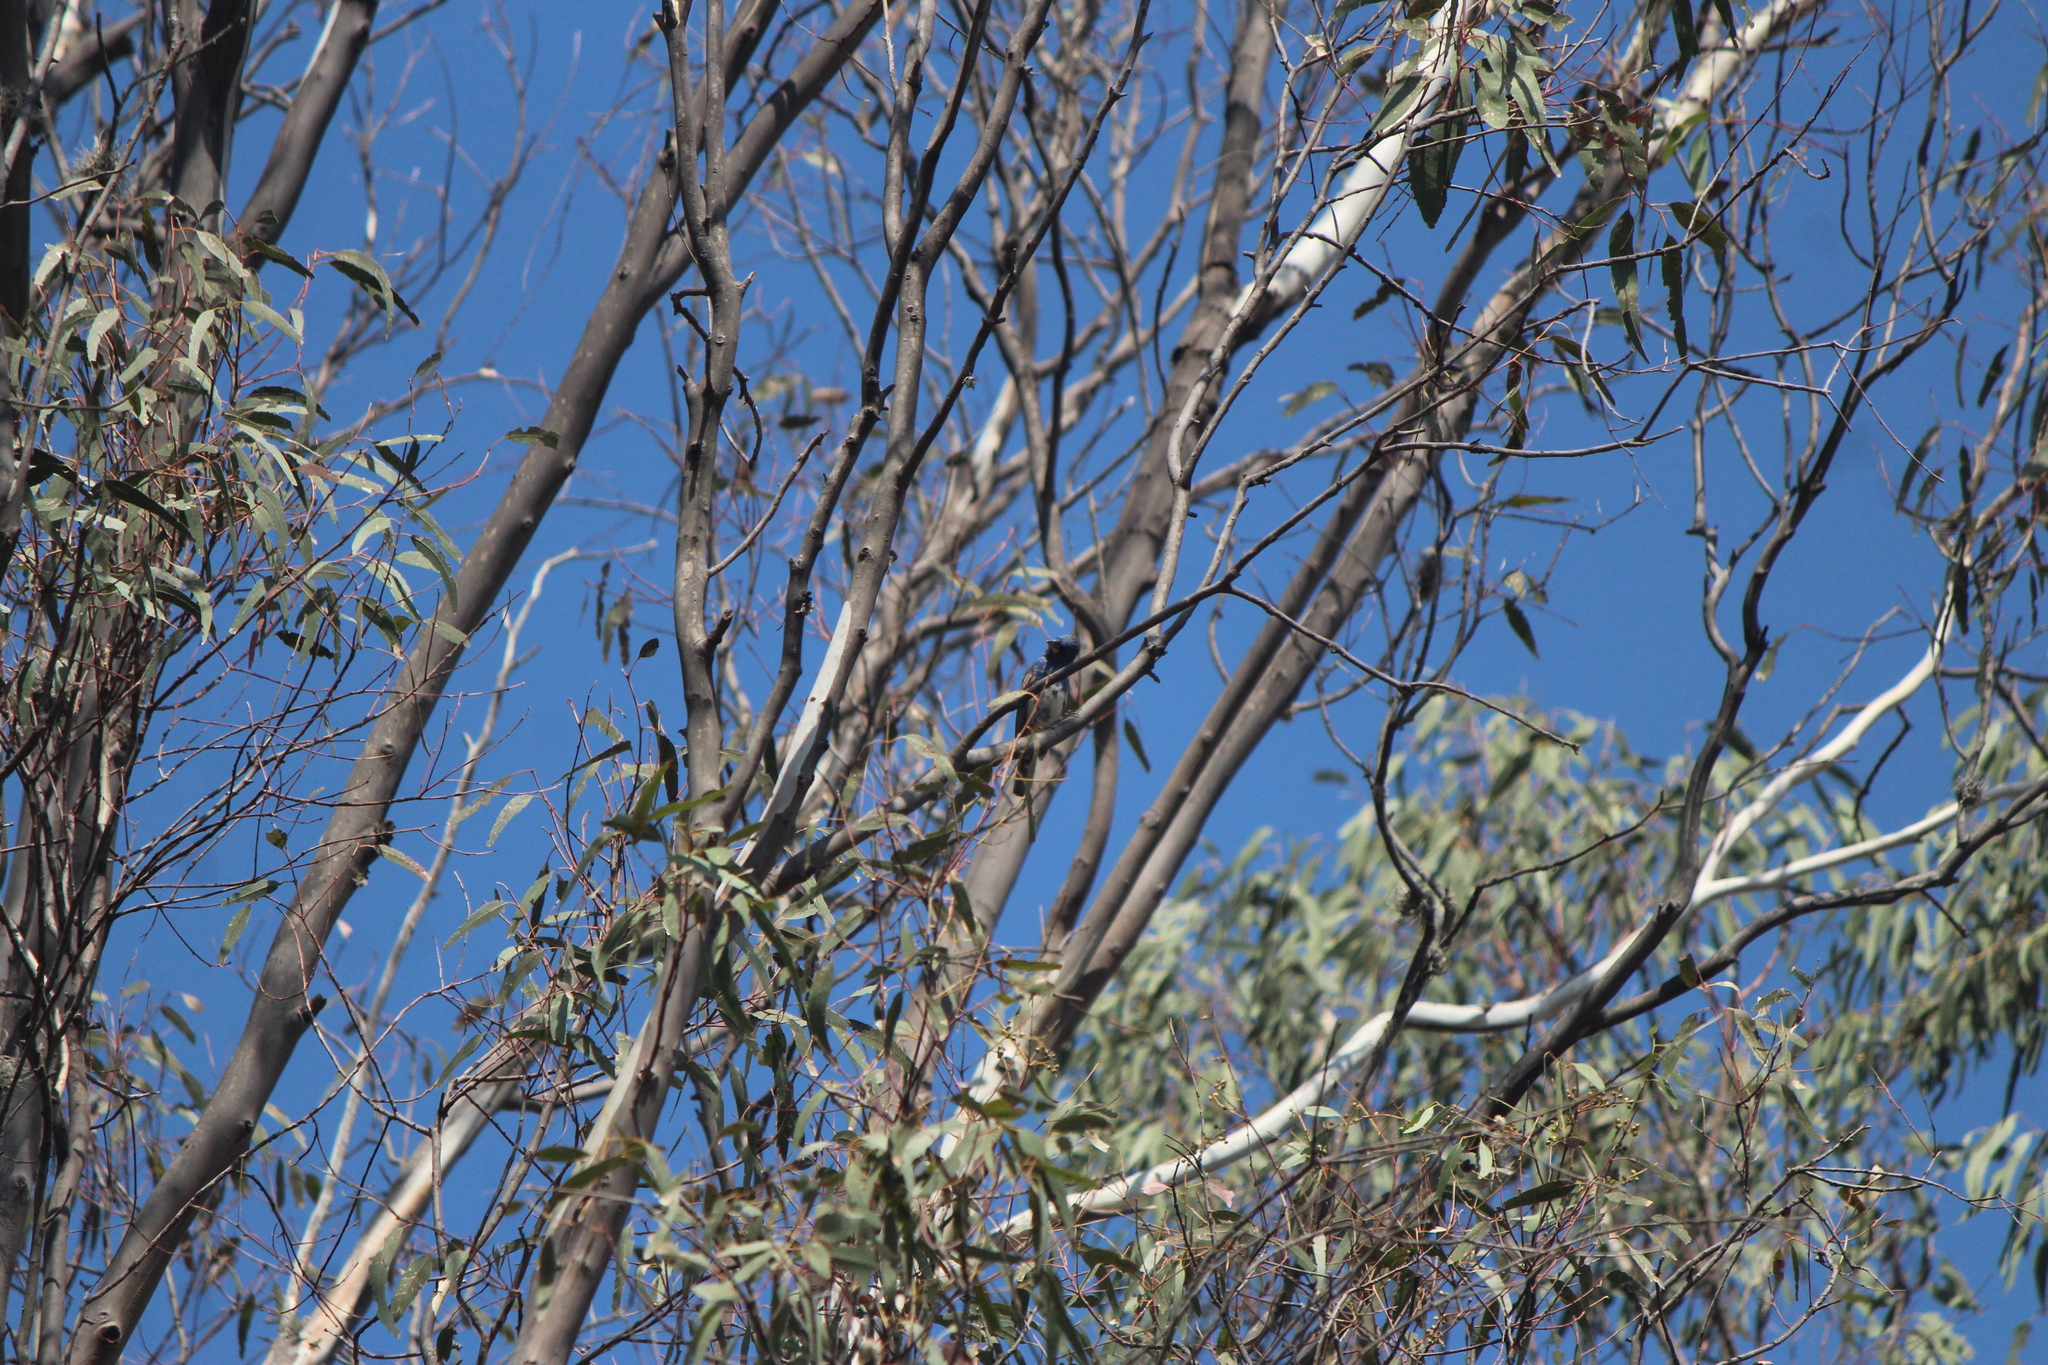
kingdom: Animalia
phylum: Chordata
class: Aves
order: Passeriformes
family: Cardinalidae
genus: Passerina
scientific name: Passerina caerulea
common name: Blue grosbeak
